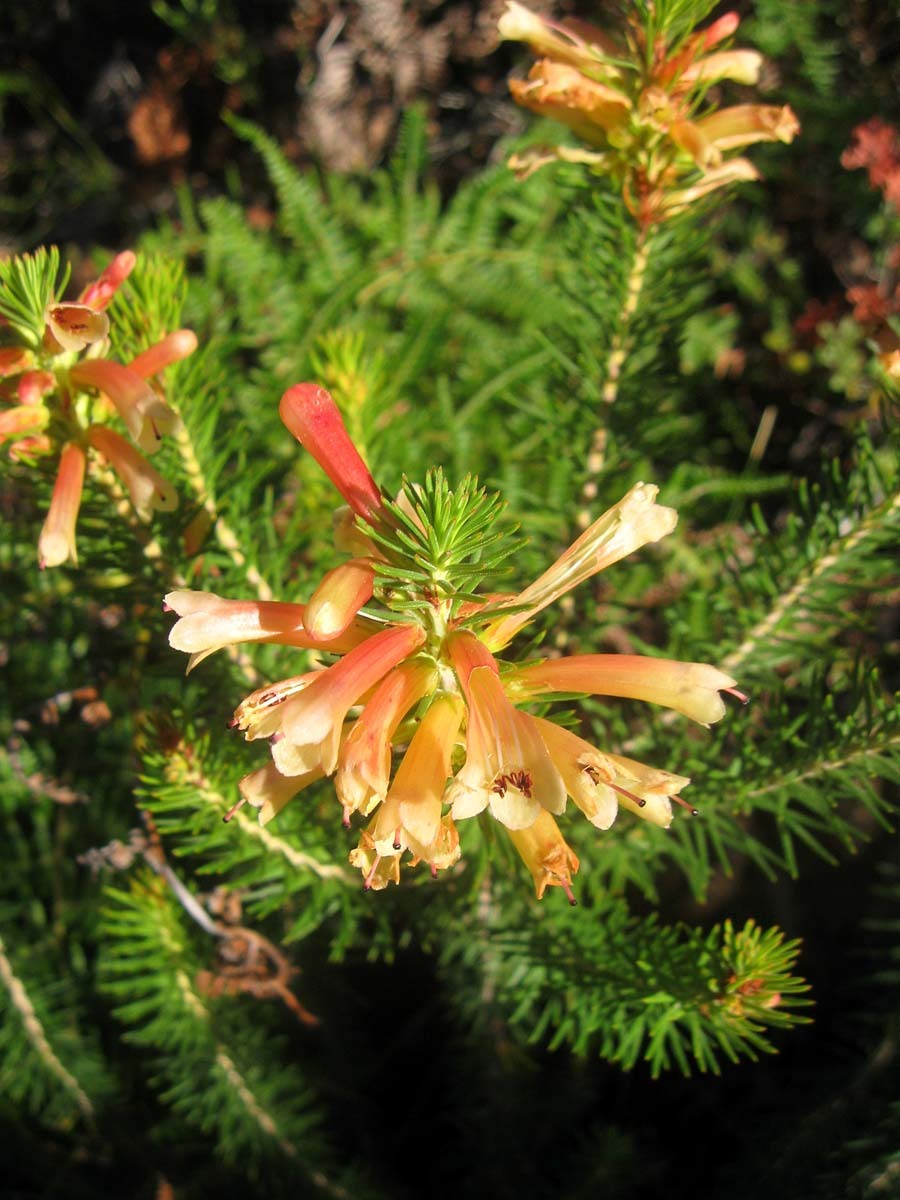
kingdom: Plantae
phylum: Tracheophyta
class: Magnoliopsida
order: Ericales
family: Ericaceae
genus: Erica
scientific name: Erica abietina
